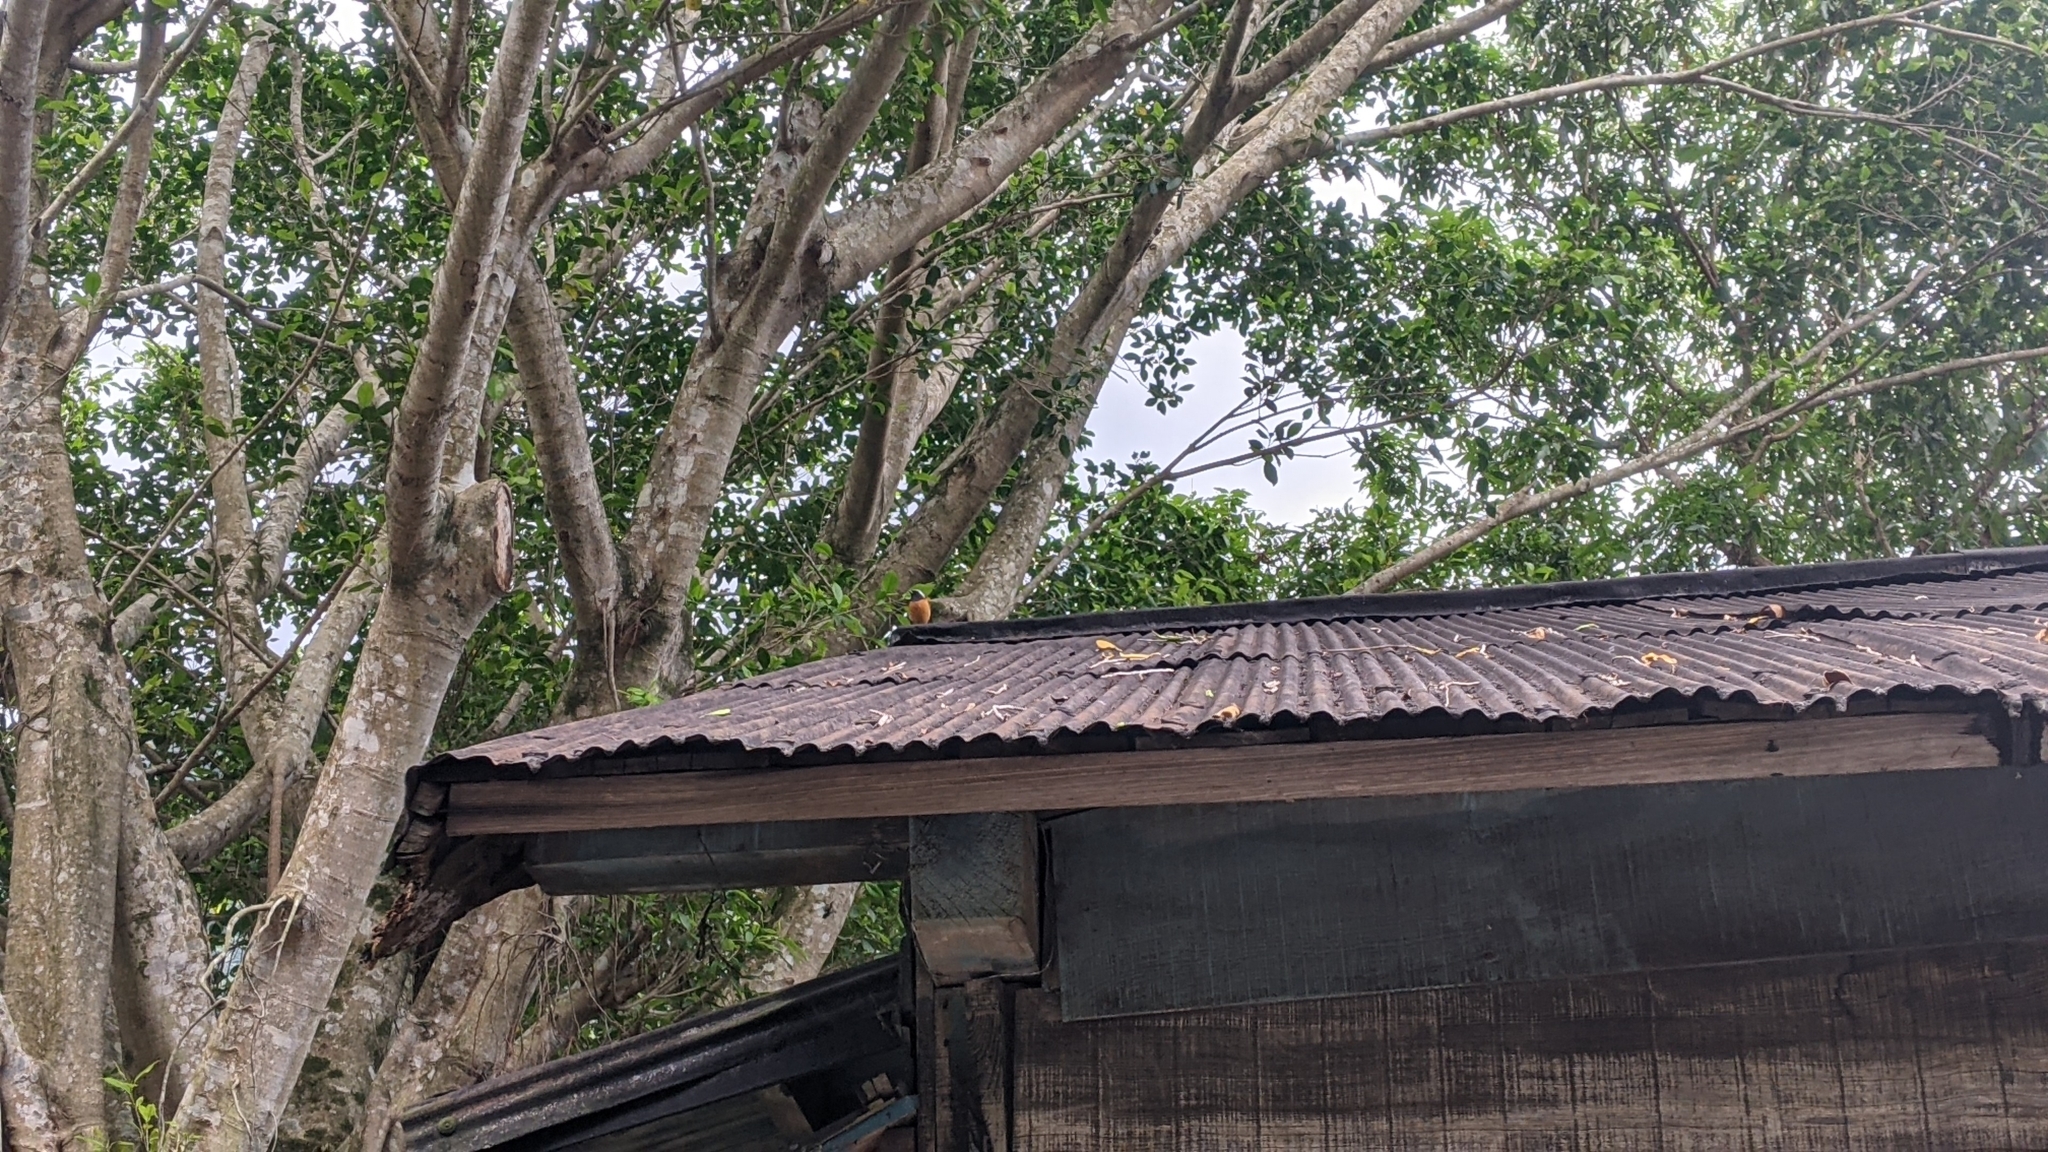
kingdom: Animalia
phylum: Chordata
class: Aves
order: Passeriformes
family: Muscicapidae
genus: Phoenicurus
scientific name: Phoenicurus auroreus
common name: Daurian redstart
